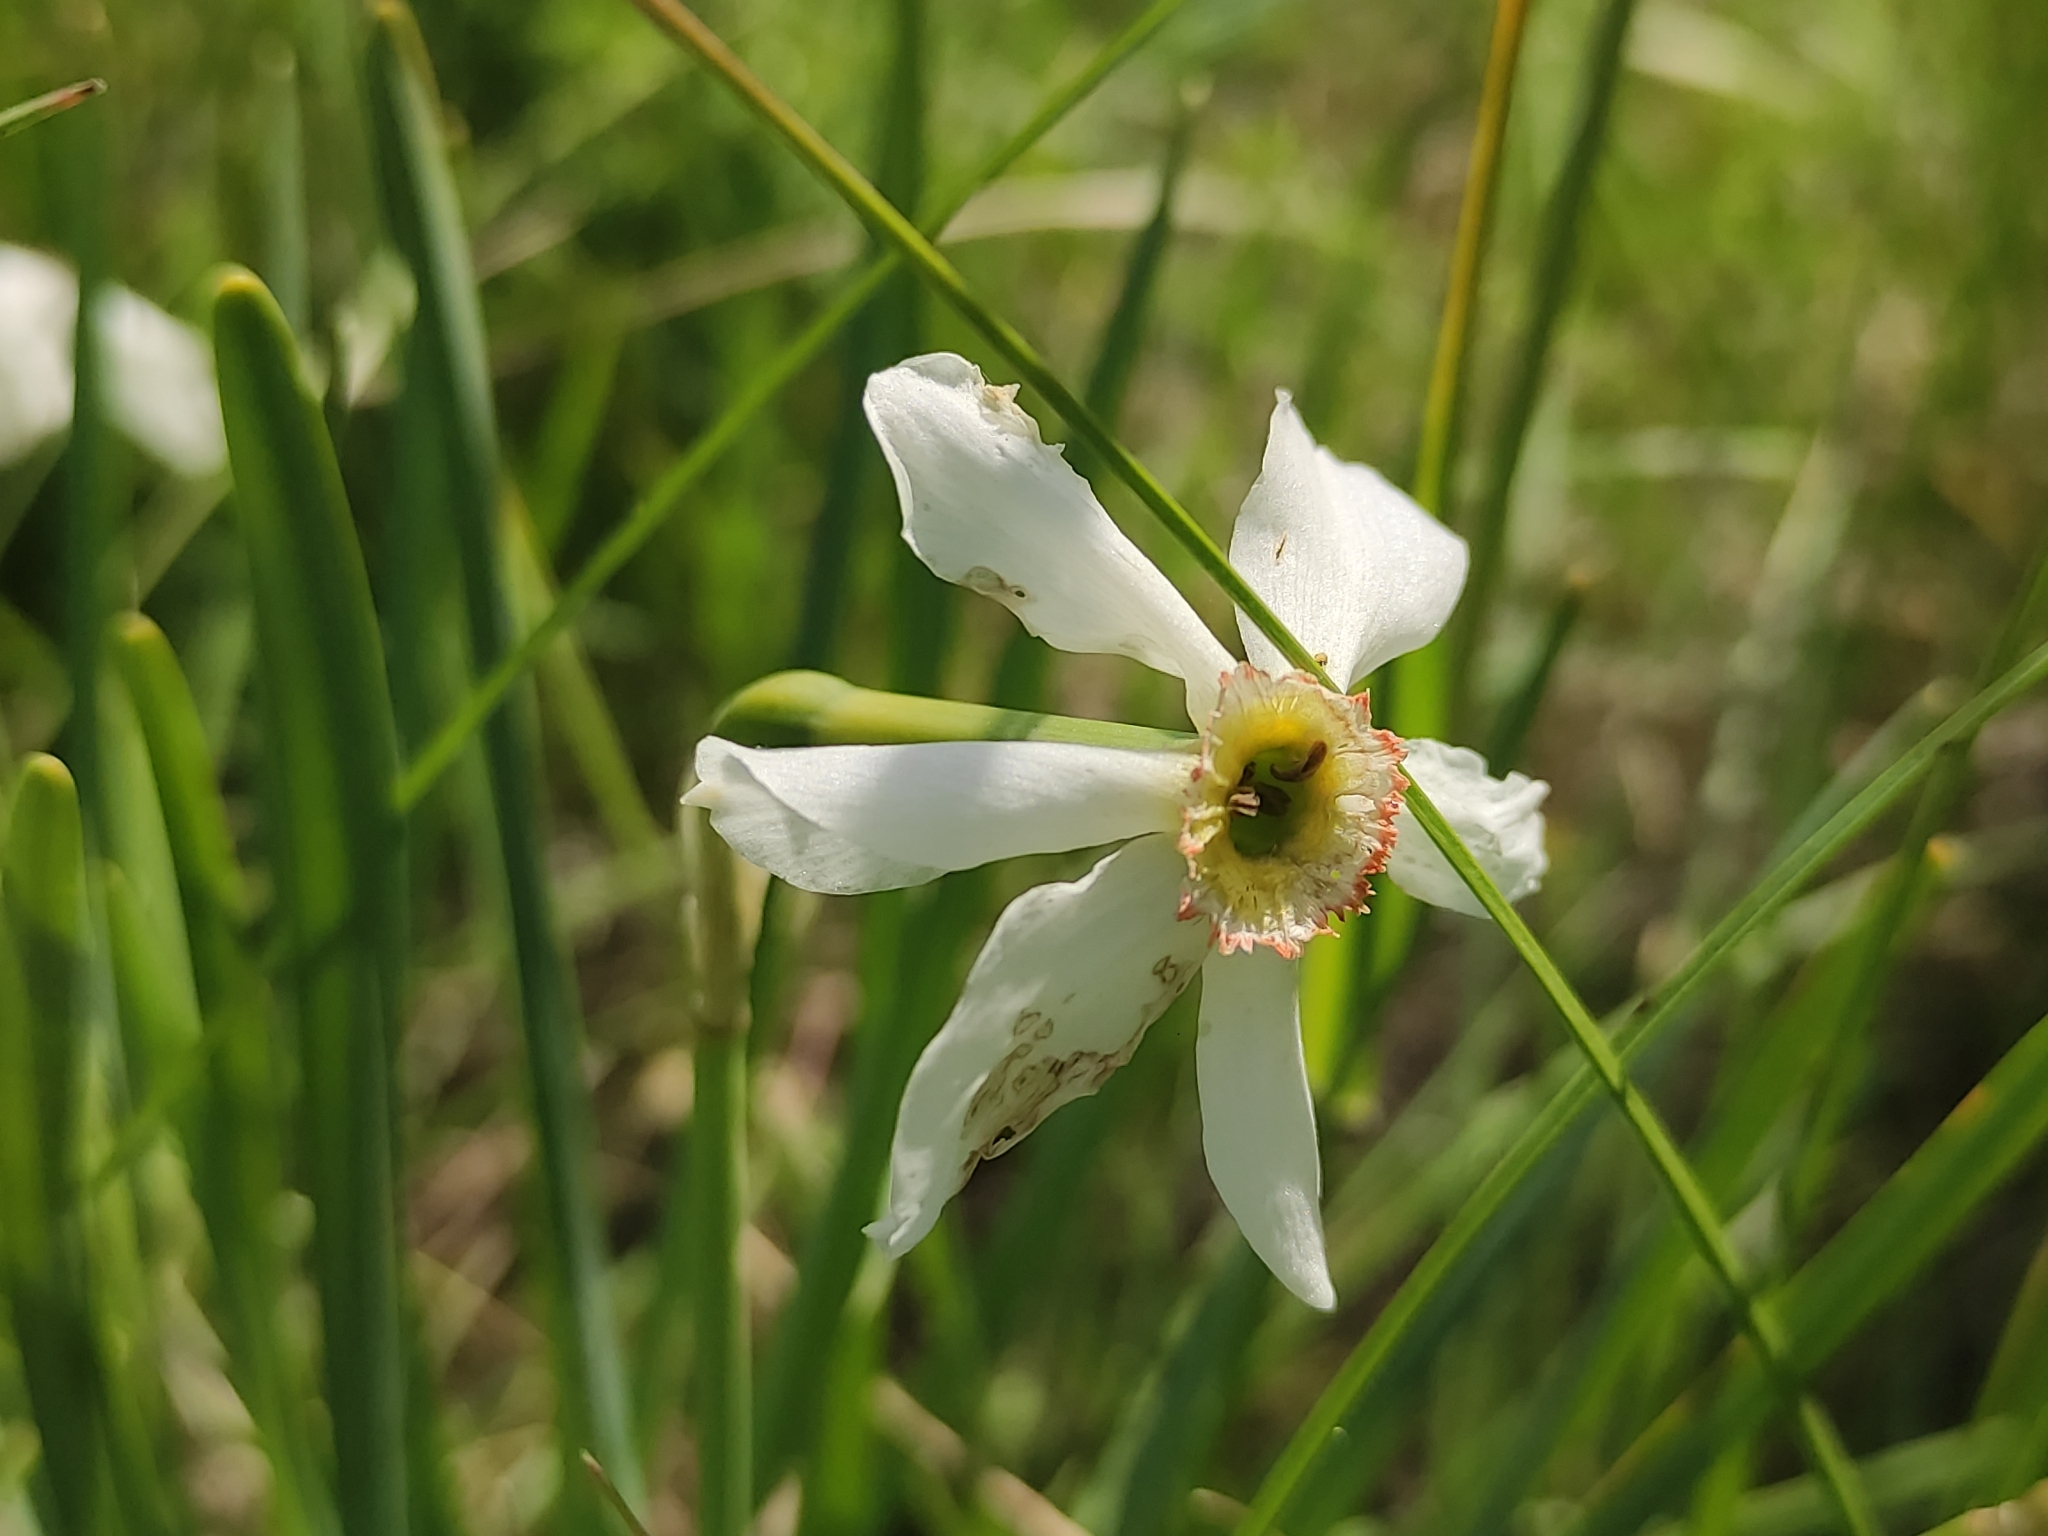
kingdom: Plantae
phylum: Tracheophyta
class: Liliopsida
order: Asparagales
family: Amaryllidaceae
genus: Narcissus
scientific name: Narcissus poeticus
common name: Pheasant's-eye daffodil
